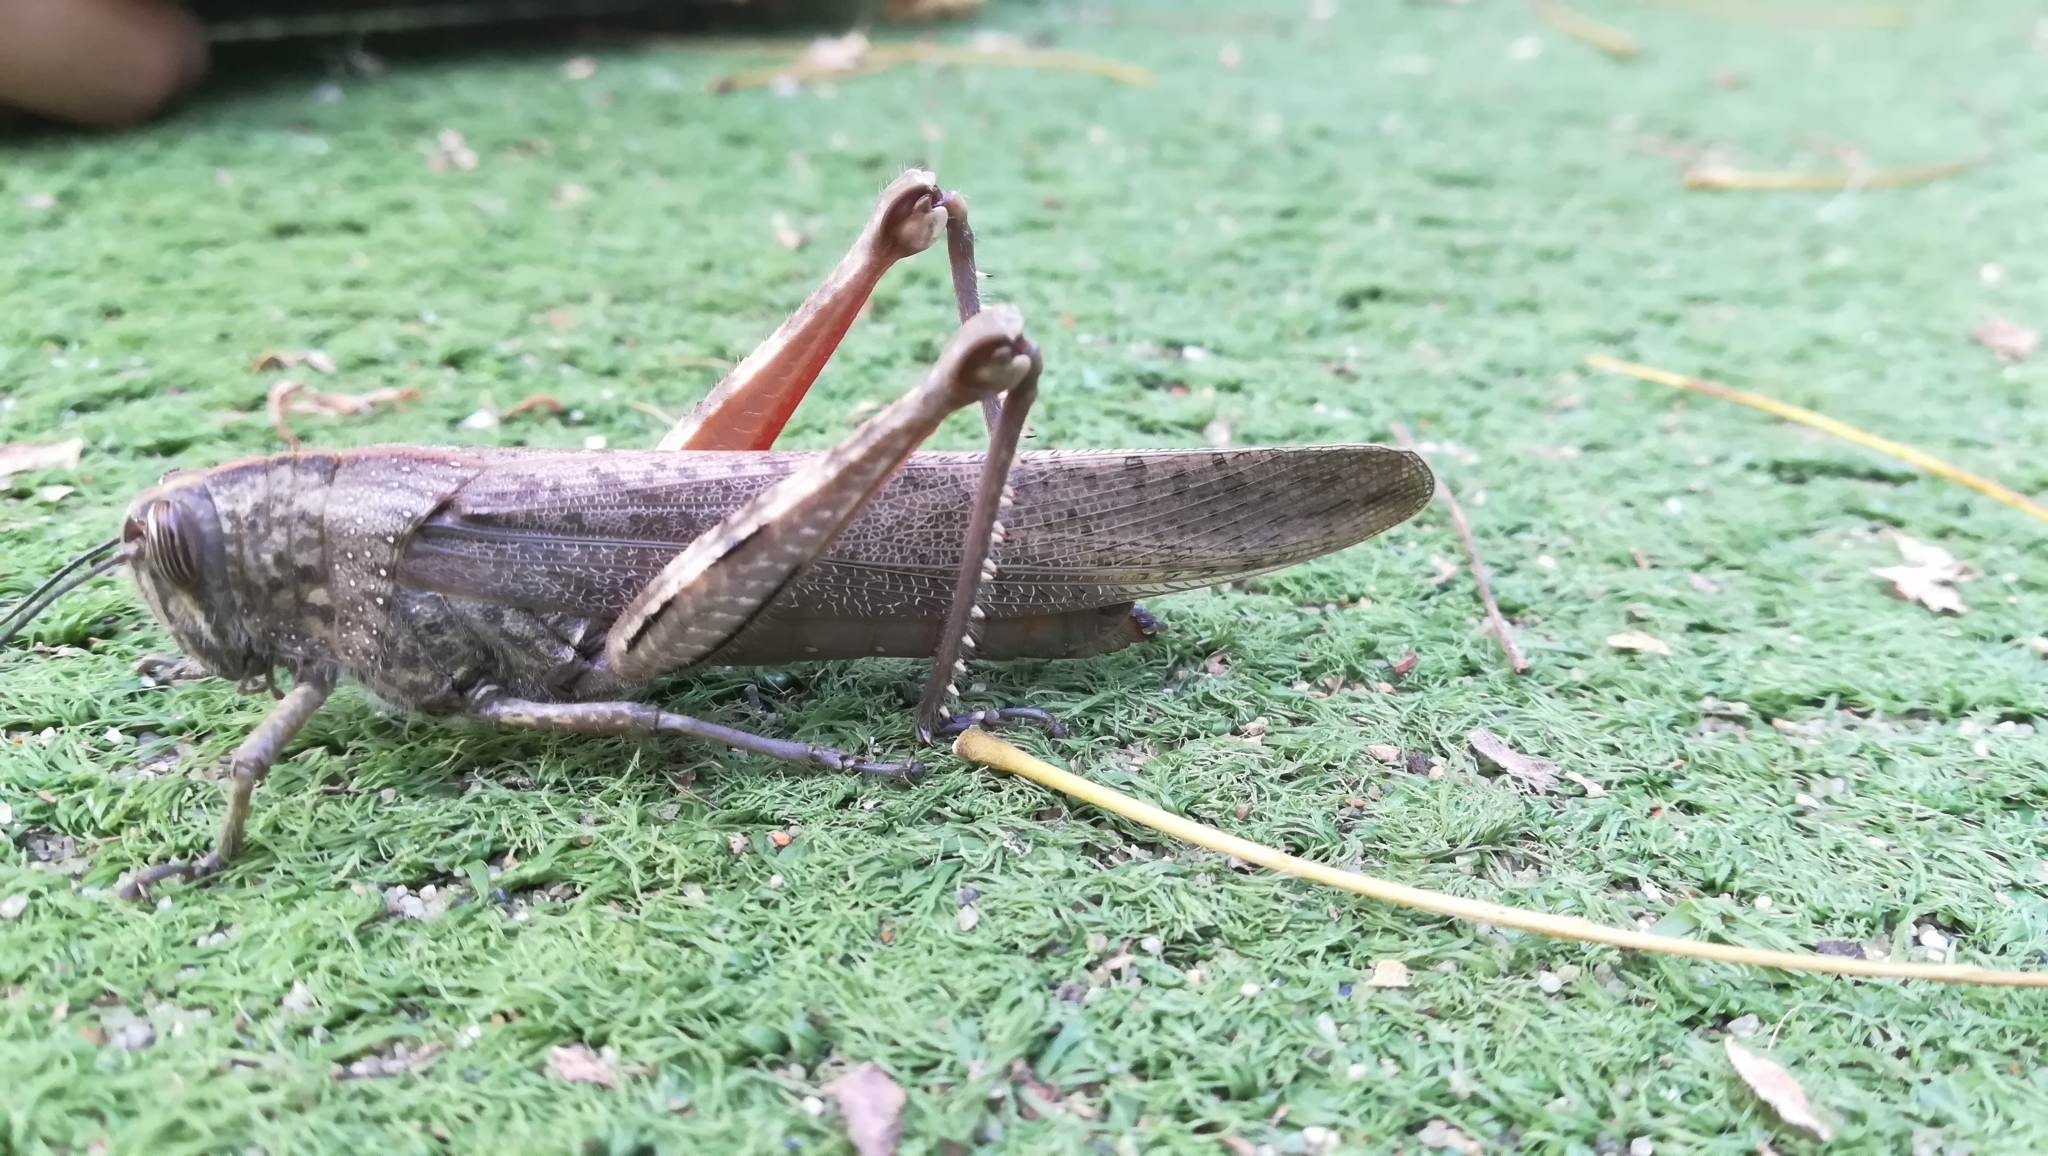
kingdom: Animalia
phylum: Arthropoda
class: Insecta
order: Orthoptera
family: Acrididae
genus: Anacridium
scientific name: Anacridium aegyptium
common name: Egyptian grasshopper
